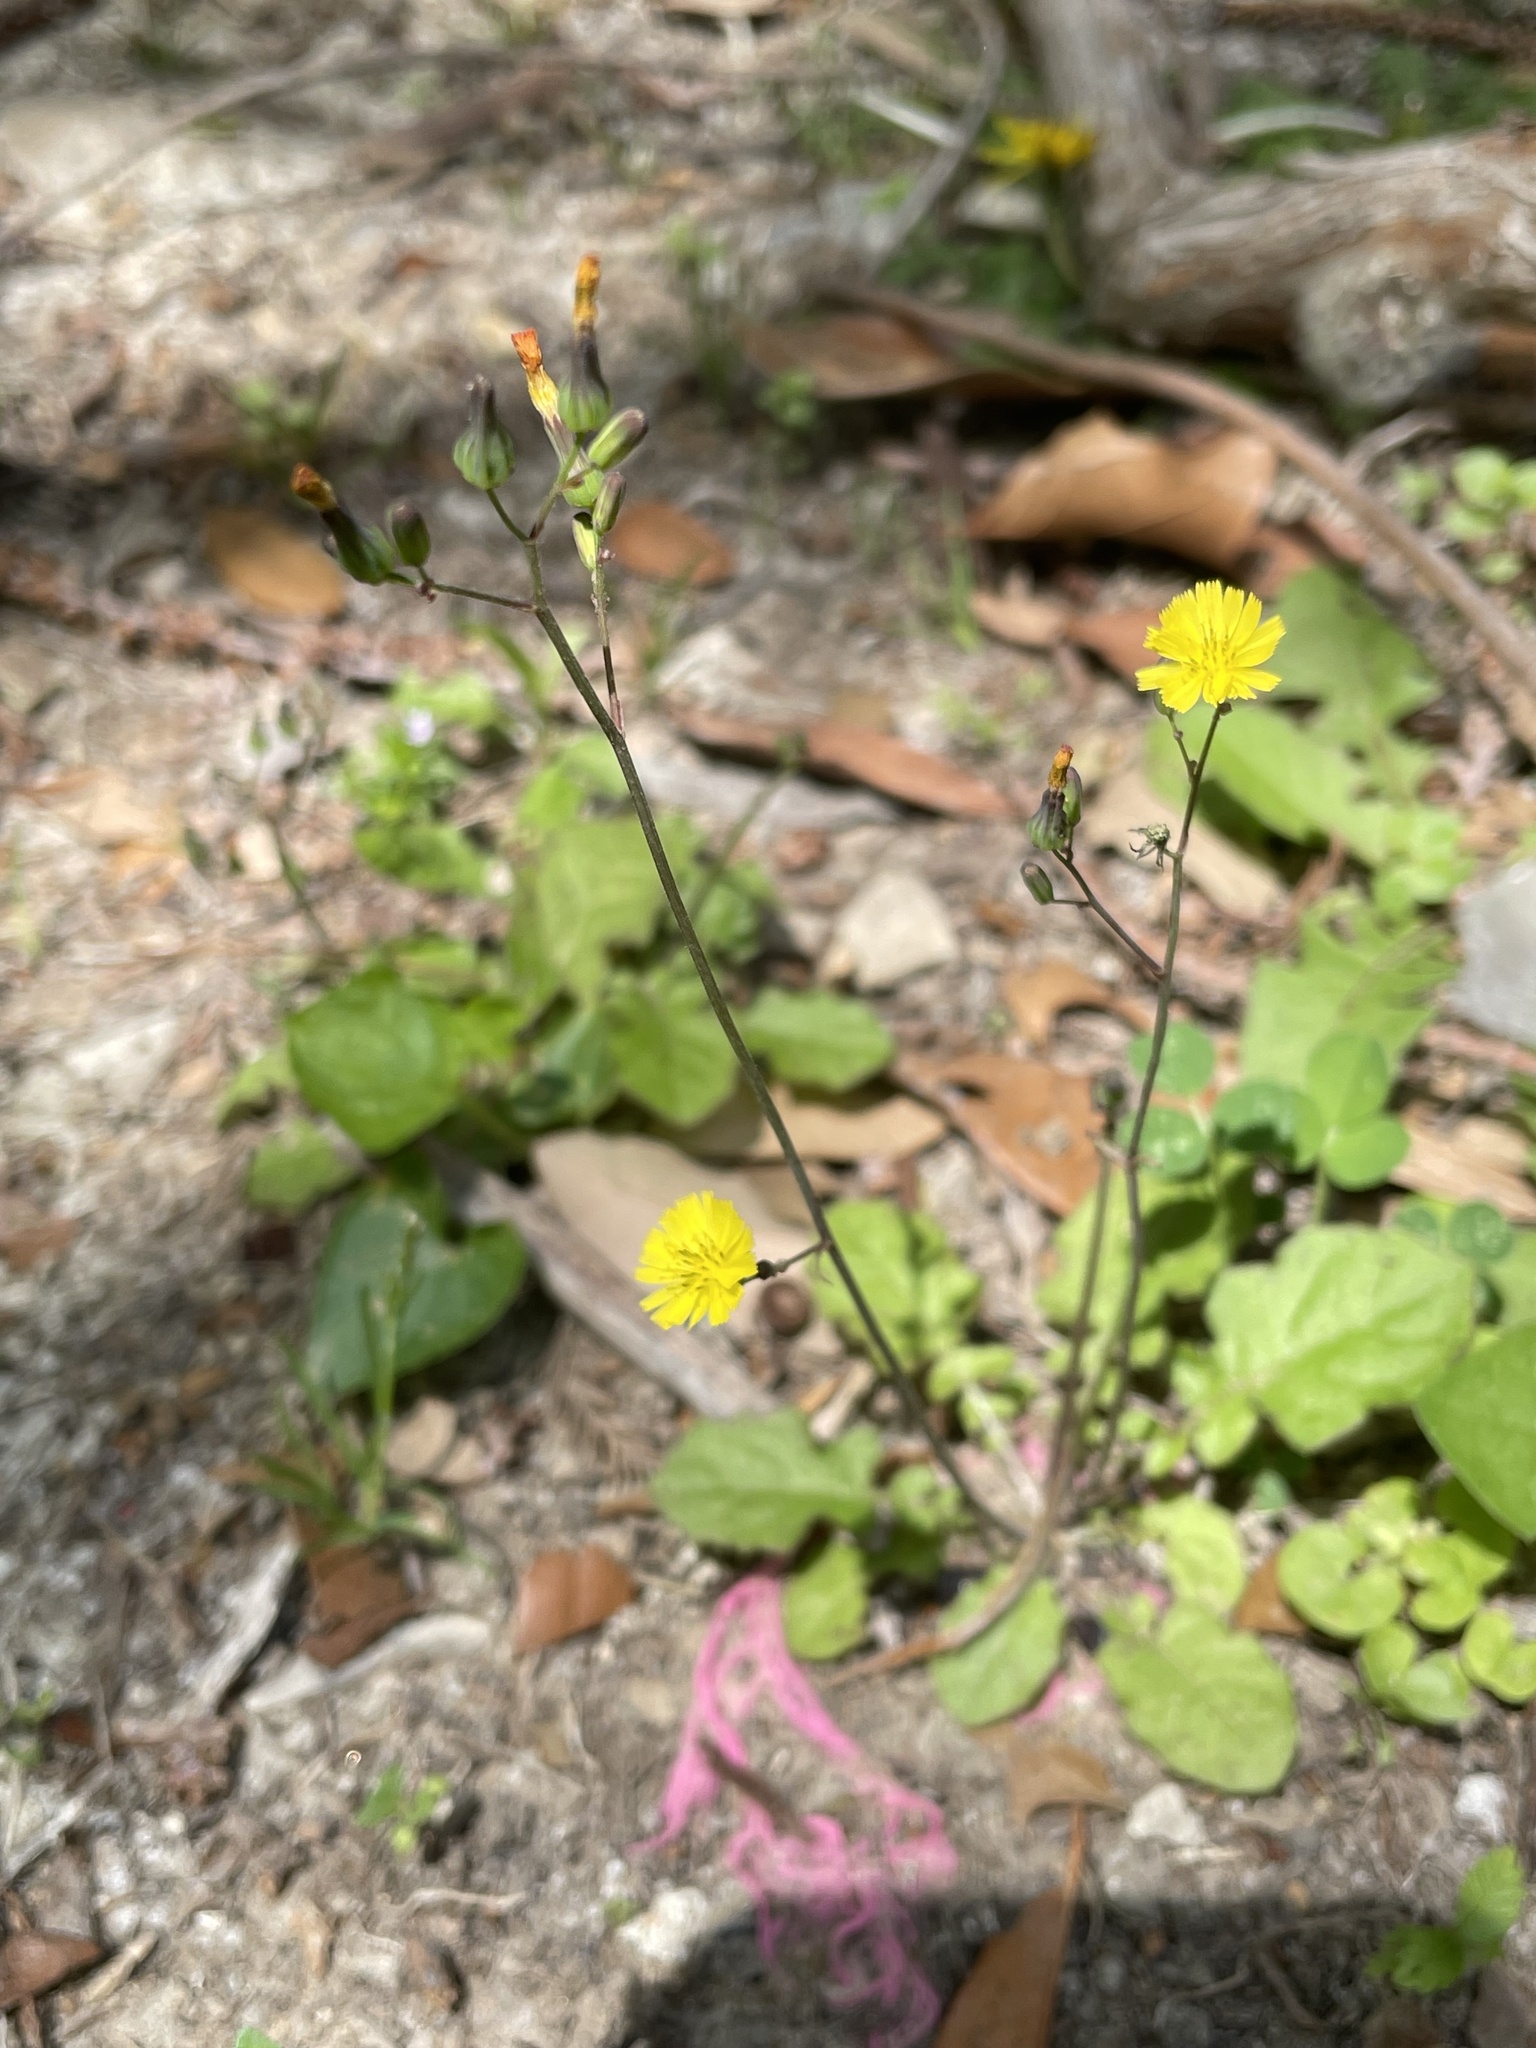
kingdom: Plantae
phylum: Tracheophyta
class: Magnoliopsida
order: Asterales
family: Asteraceae
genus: Youngia
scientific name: Youngia japonica
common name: Oriental false hawksbeard
